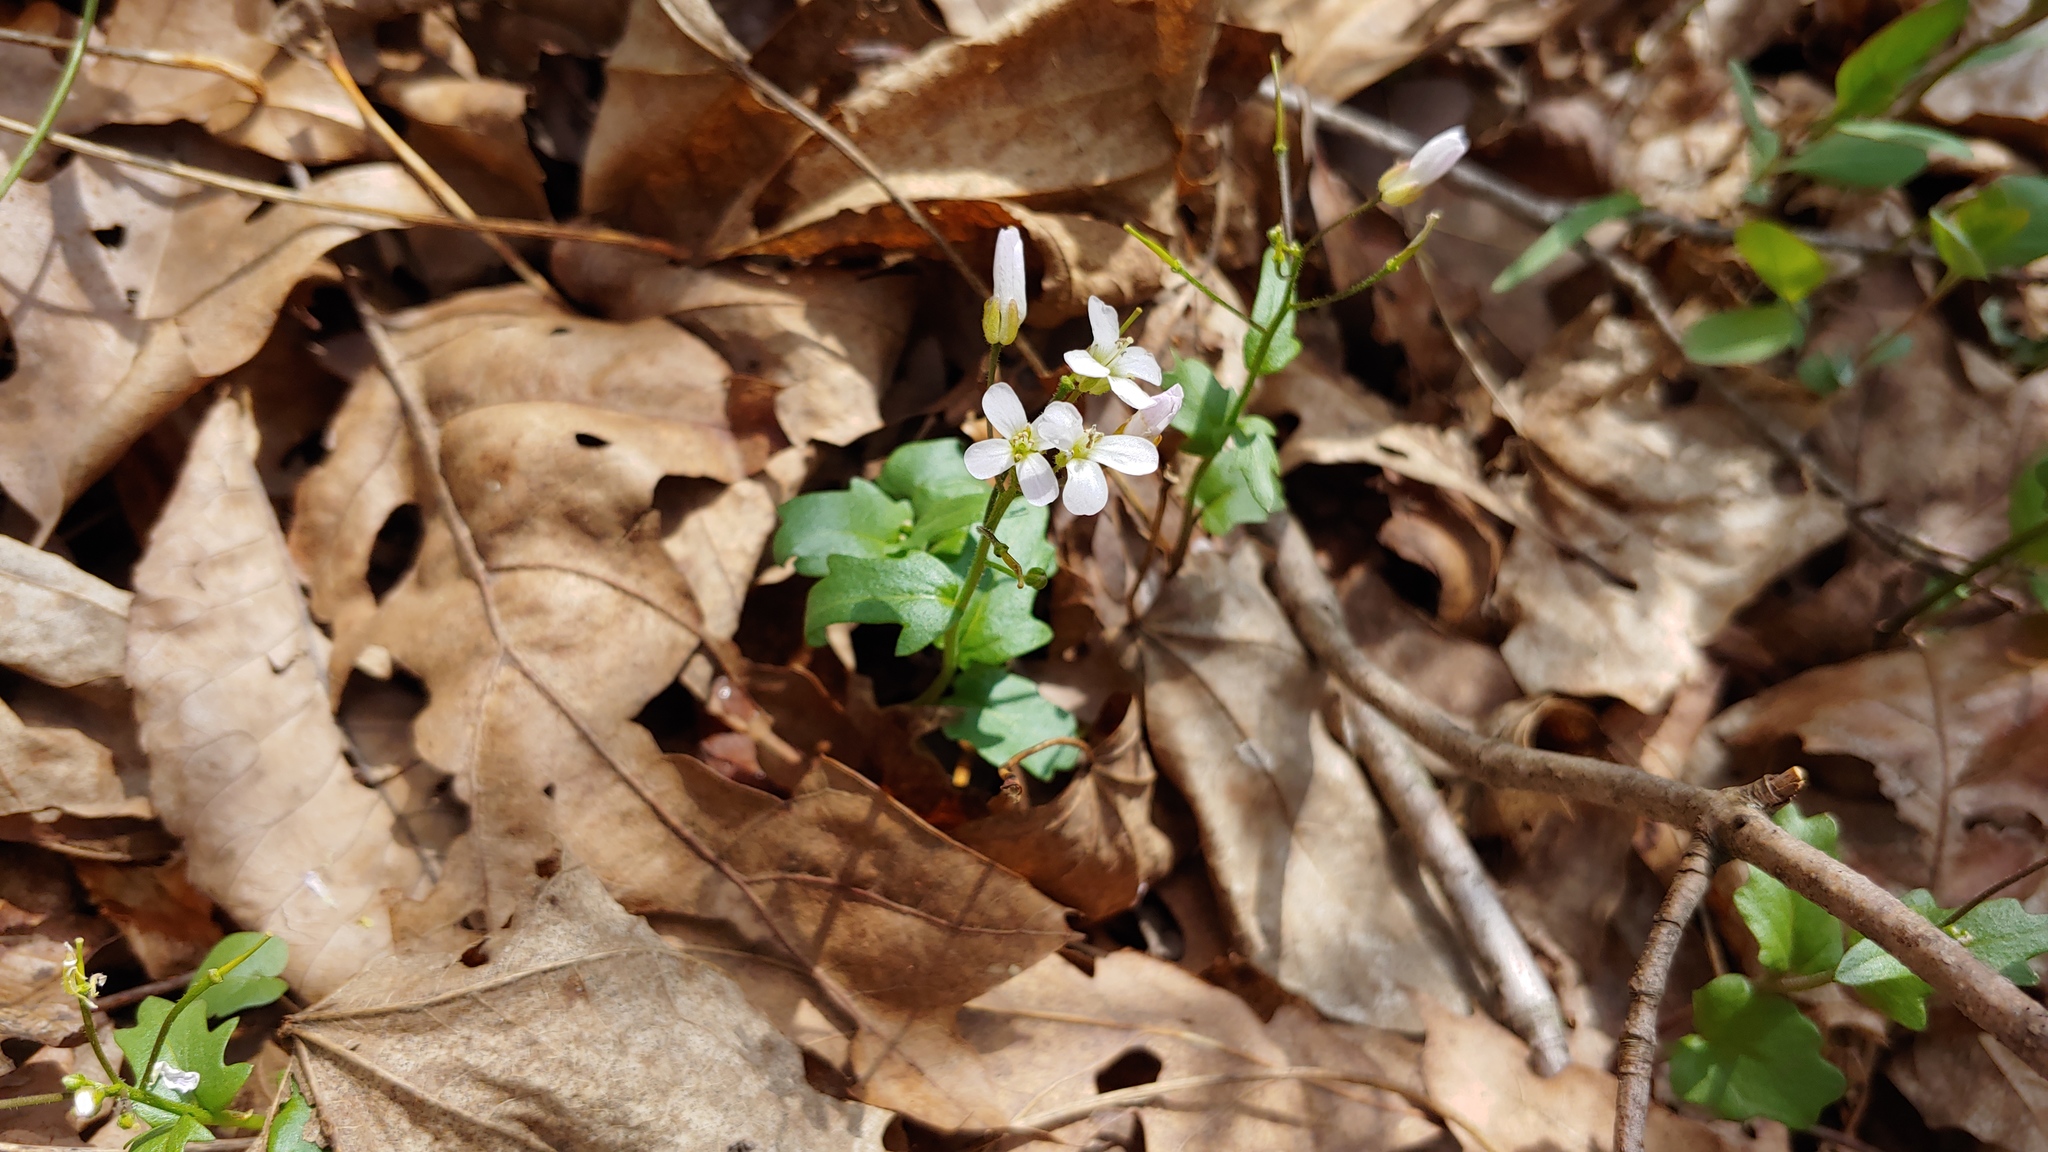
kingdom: Plantae
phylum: Tracheophyta
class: Magnoliopsida
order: Brassicales
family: Brassicaceae
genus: Cardamine
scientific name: Cardamine douglassii
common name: Purple cress
